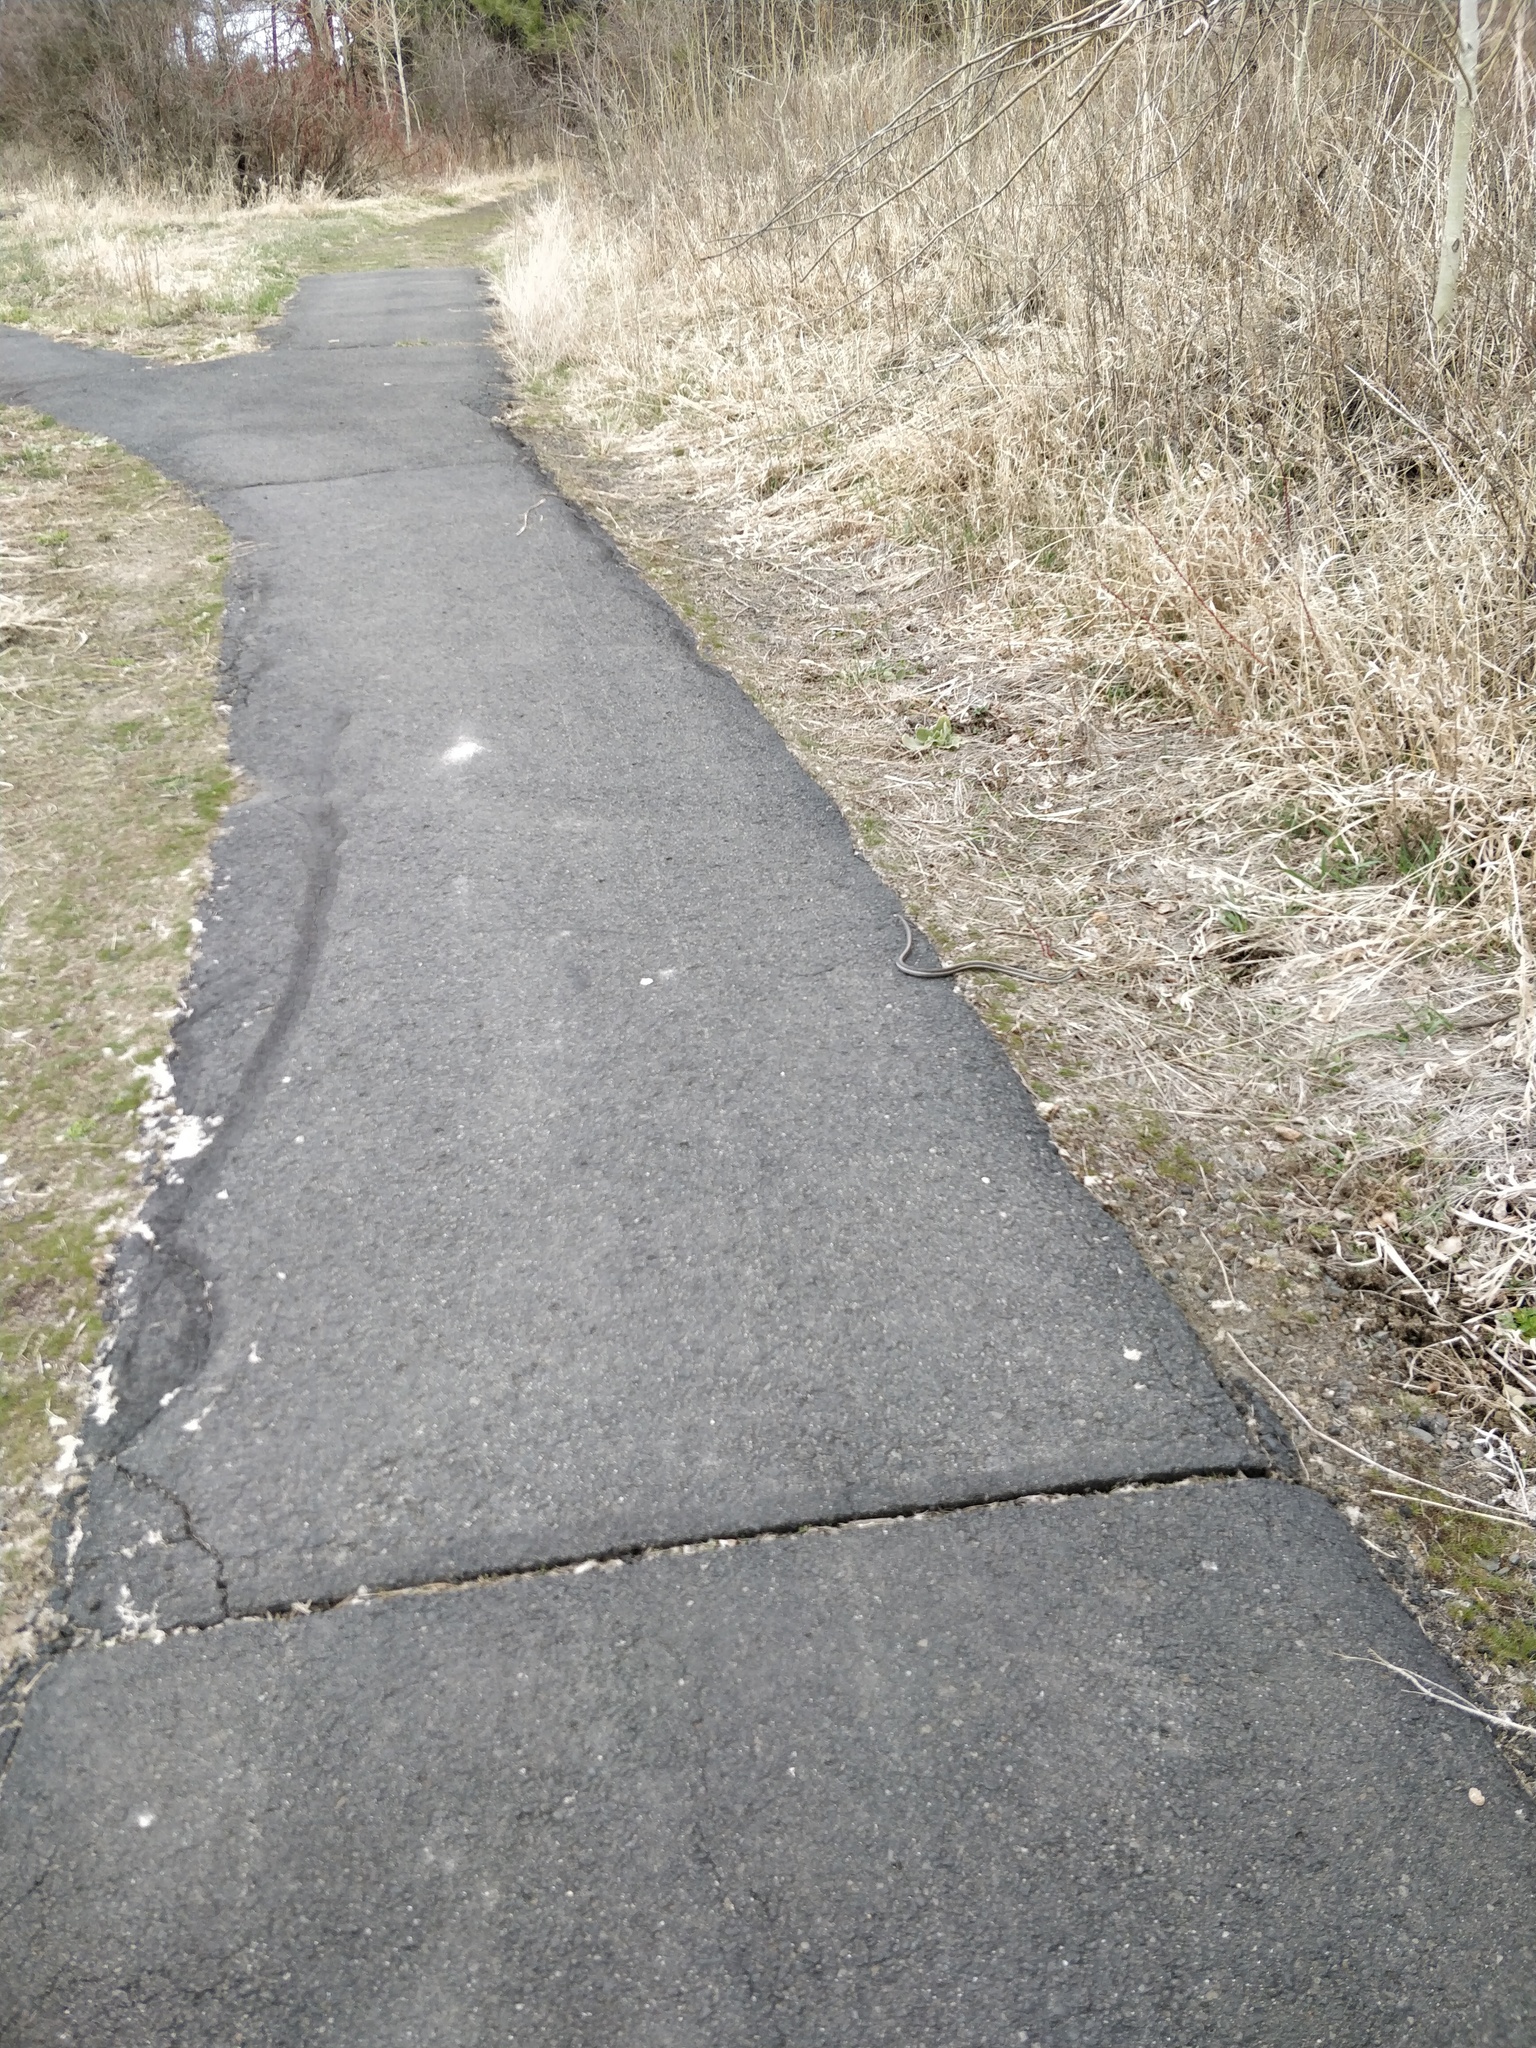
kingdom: Animalia
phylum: Chordata
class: Squamata
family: Colubridae
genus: Thamnophis
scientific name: Thamnophis sirtalis
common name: Common garter snake
